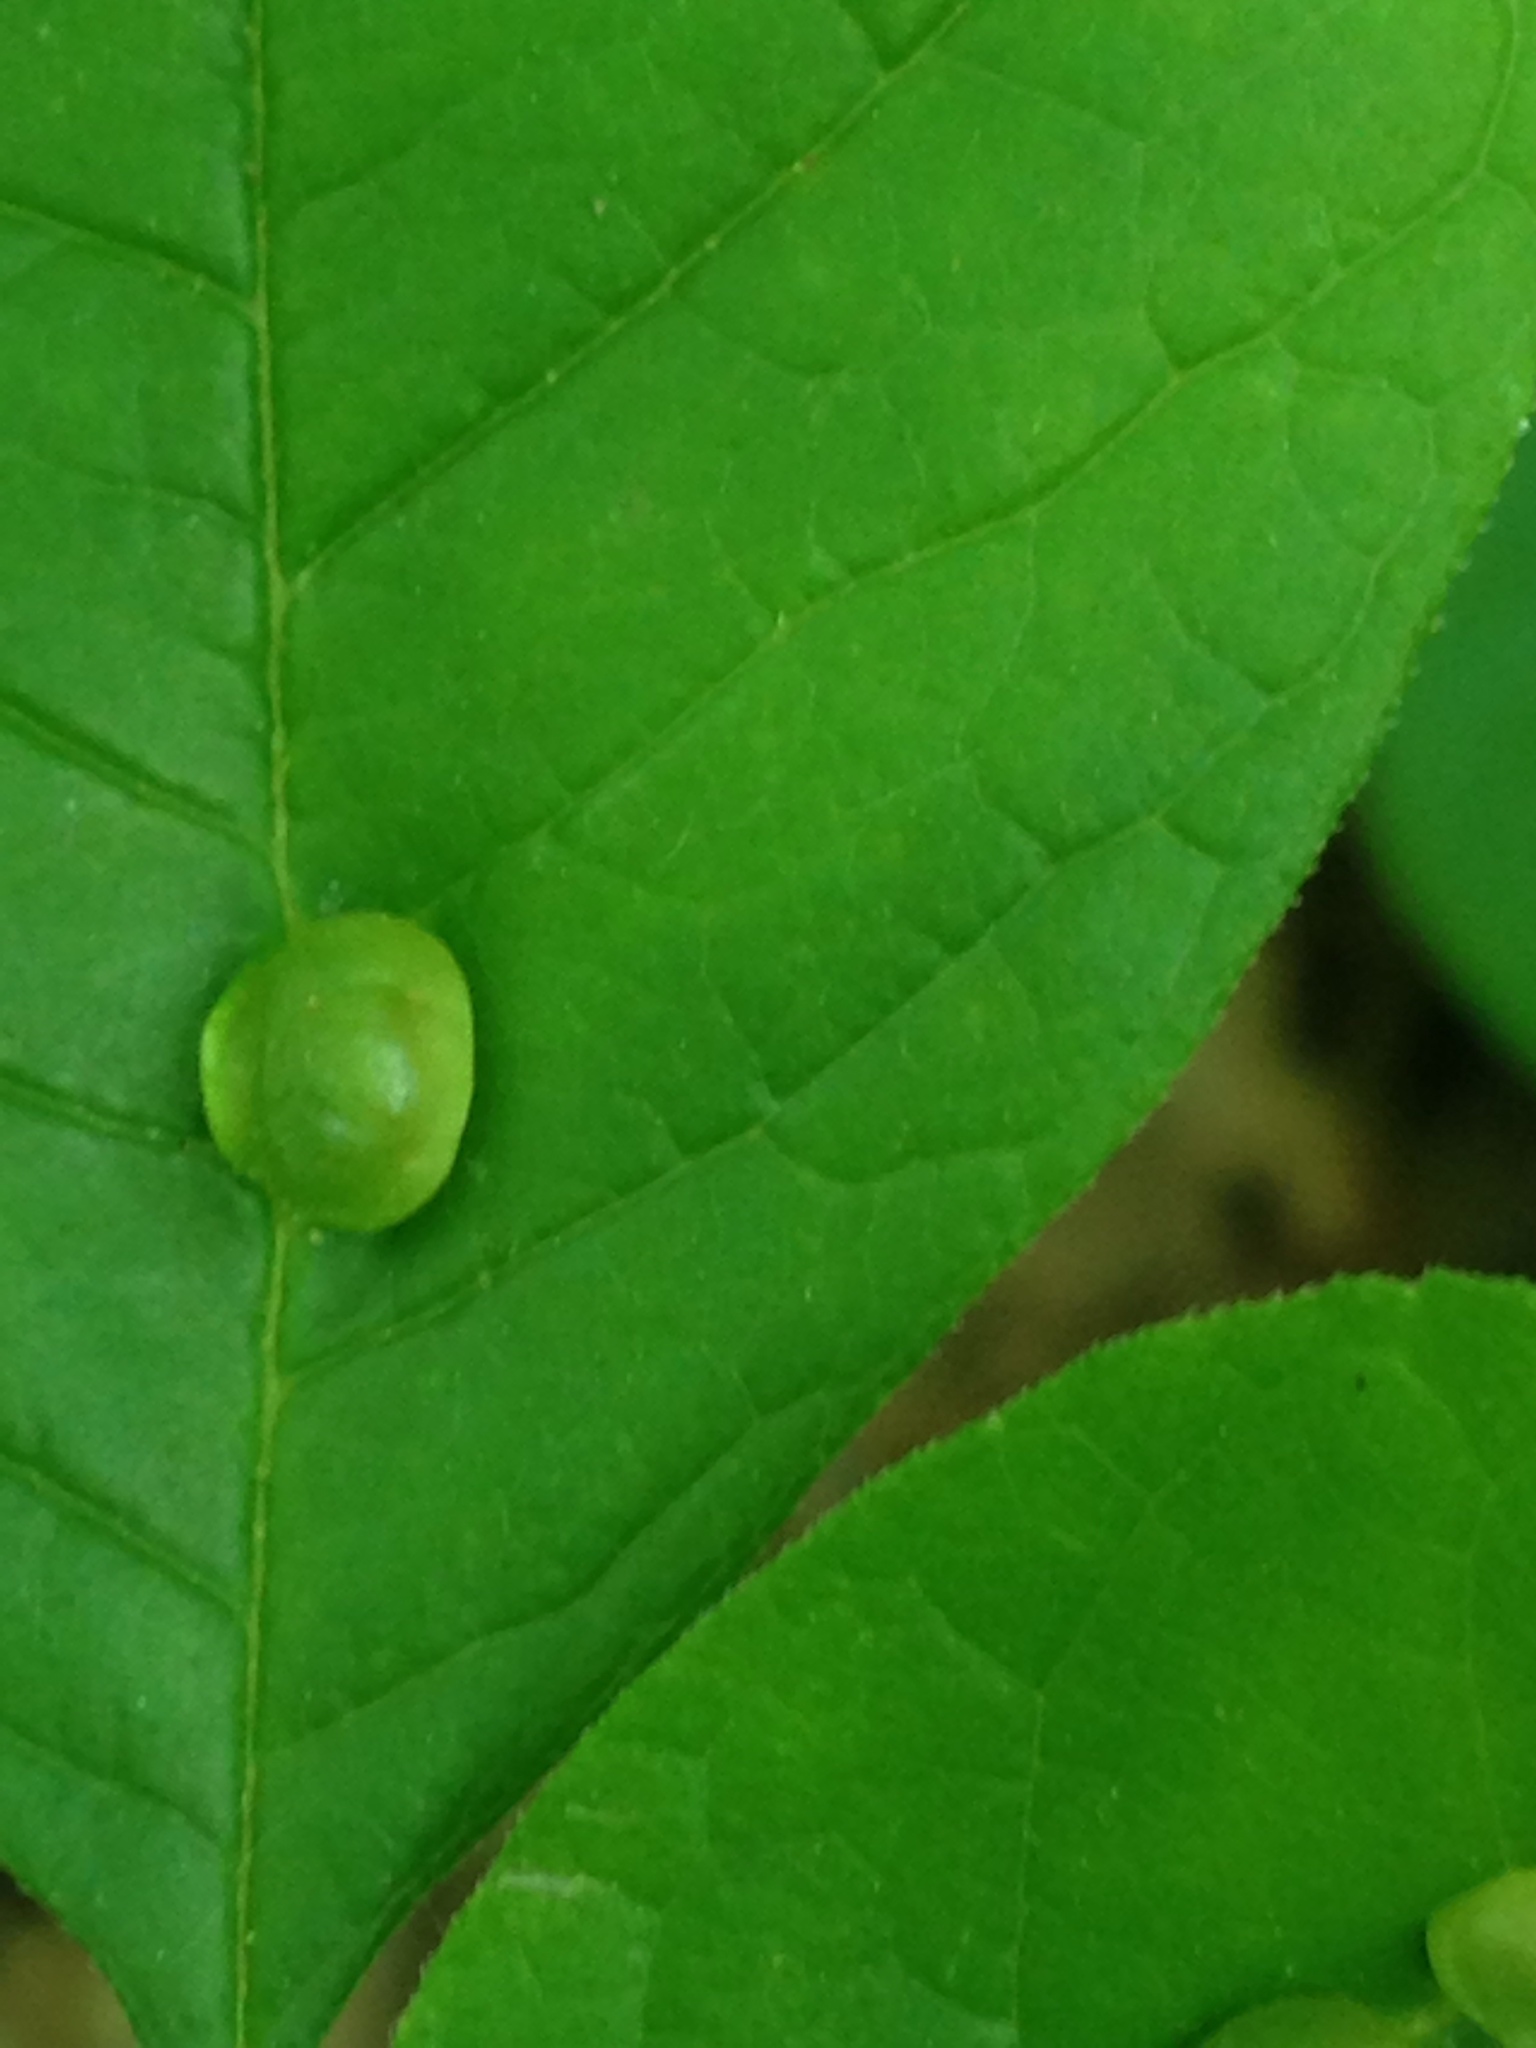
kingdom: Animalia
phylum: Arthropoda
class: Insecta
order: Diptera
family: Cecidomyiidae
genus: Dasineura
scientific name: Dasineura pellex
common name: Ash bullet gall midge
